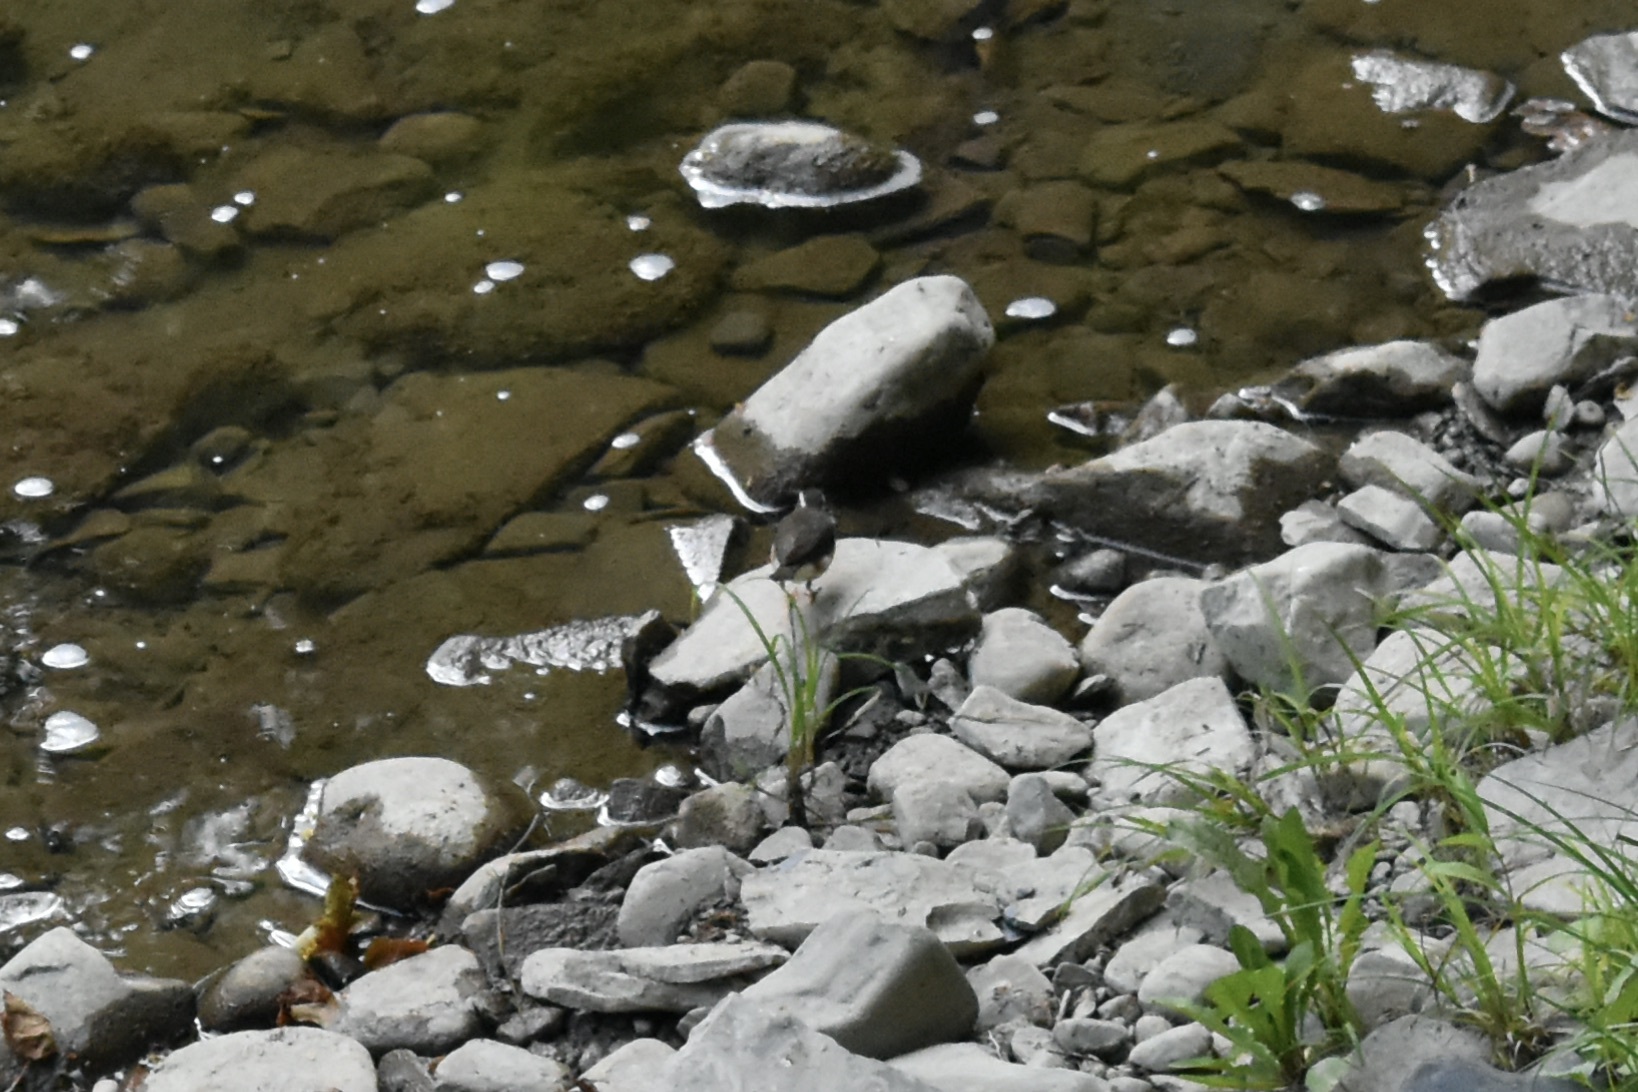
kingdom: Animalia
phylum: Chordata
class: Aves
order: Passeriformes
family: Parulidae
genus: Parkesia
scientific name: Parkesia motacilla
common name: Louisiana waterthrush
